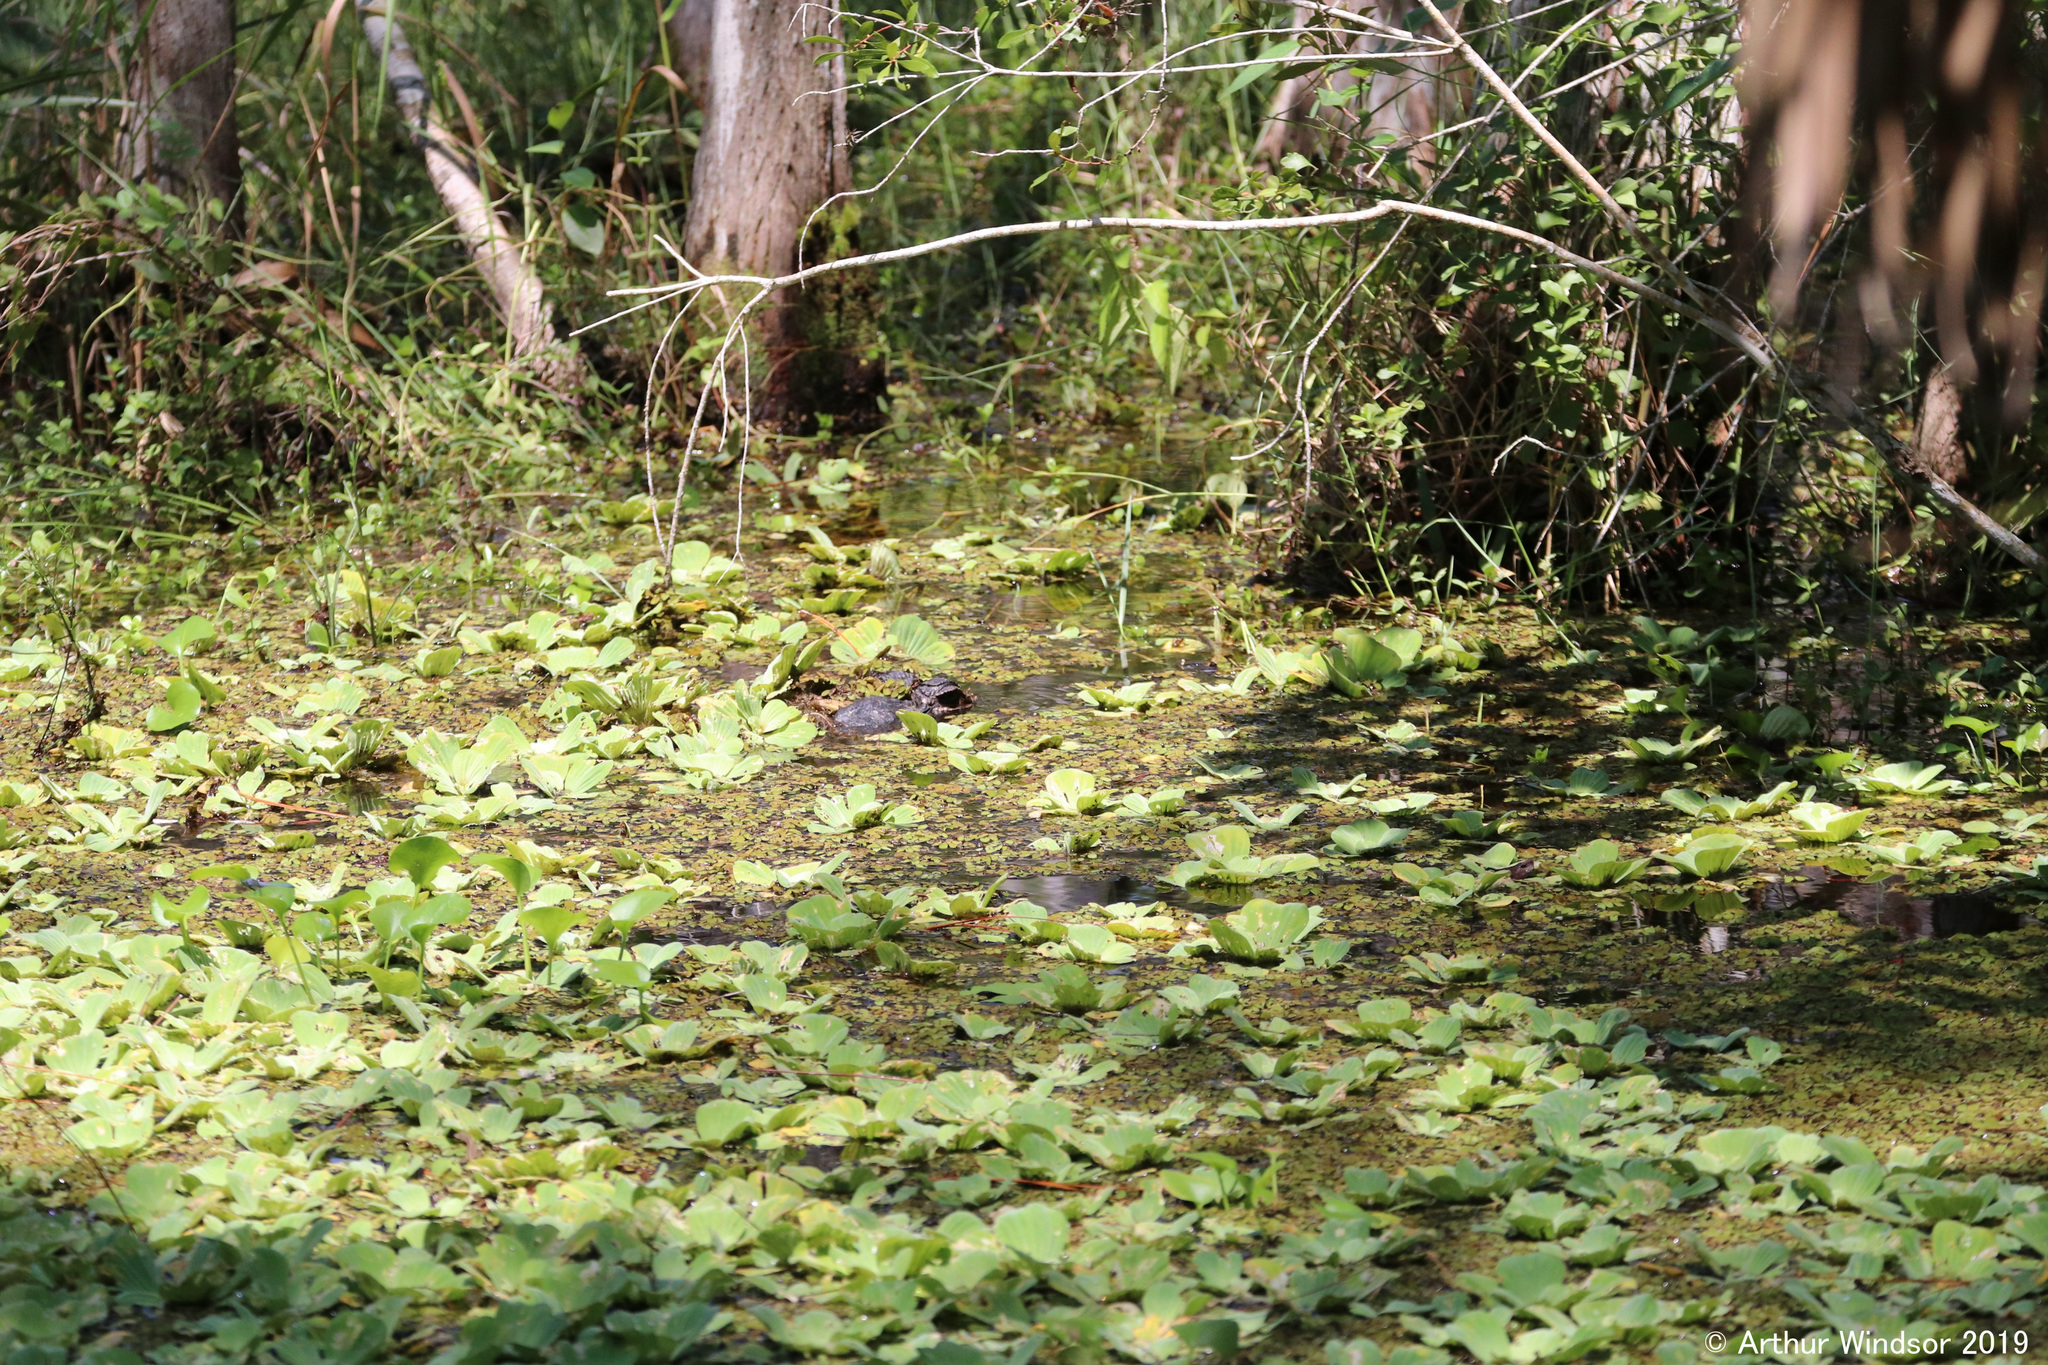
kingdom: Animalia
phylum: Chordata
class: Crocodylia
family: Alligatoridae
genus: Alligator
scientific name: Alligator mississippiensis
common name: American alligator
